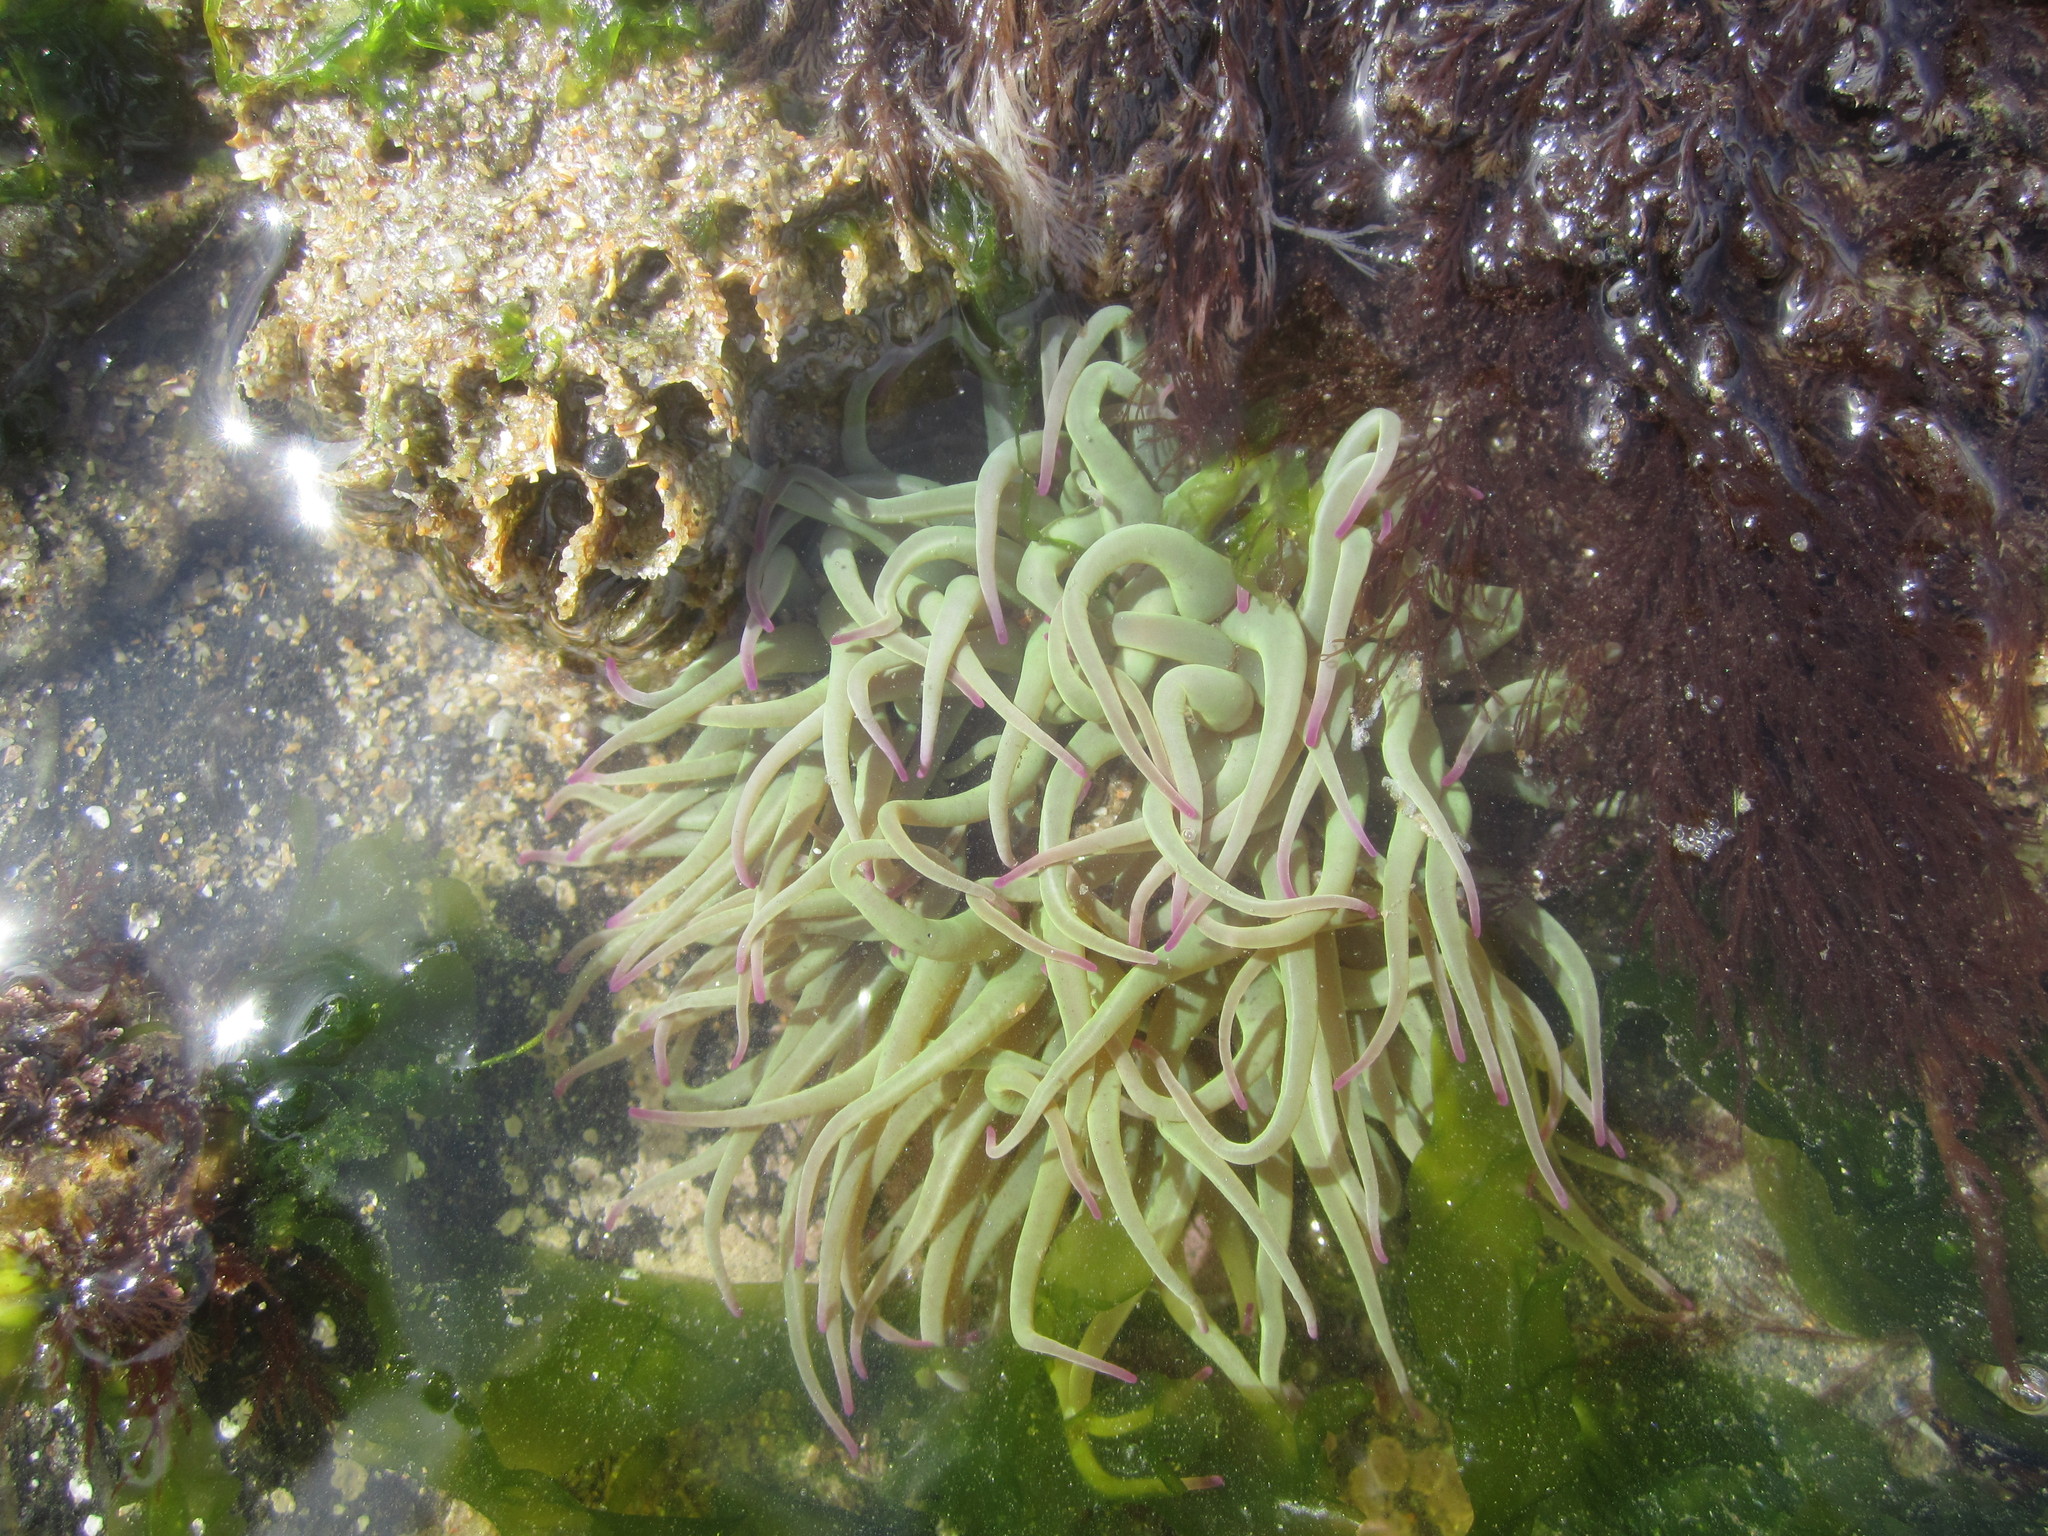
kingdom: Animalia
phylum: Cnidaria
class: Anthozoa
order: Actiniaria
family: Actiniidae
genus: Anemonia
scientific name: Anemonia viridis
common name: Snakelocks anemone
